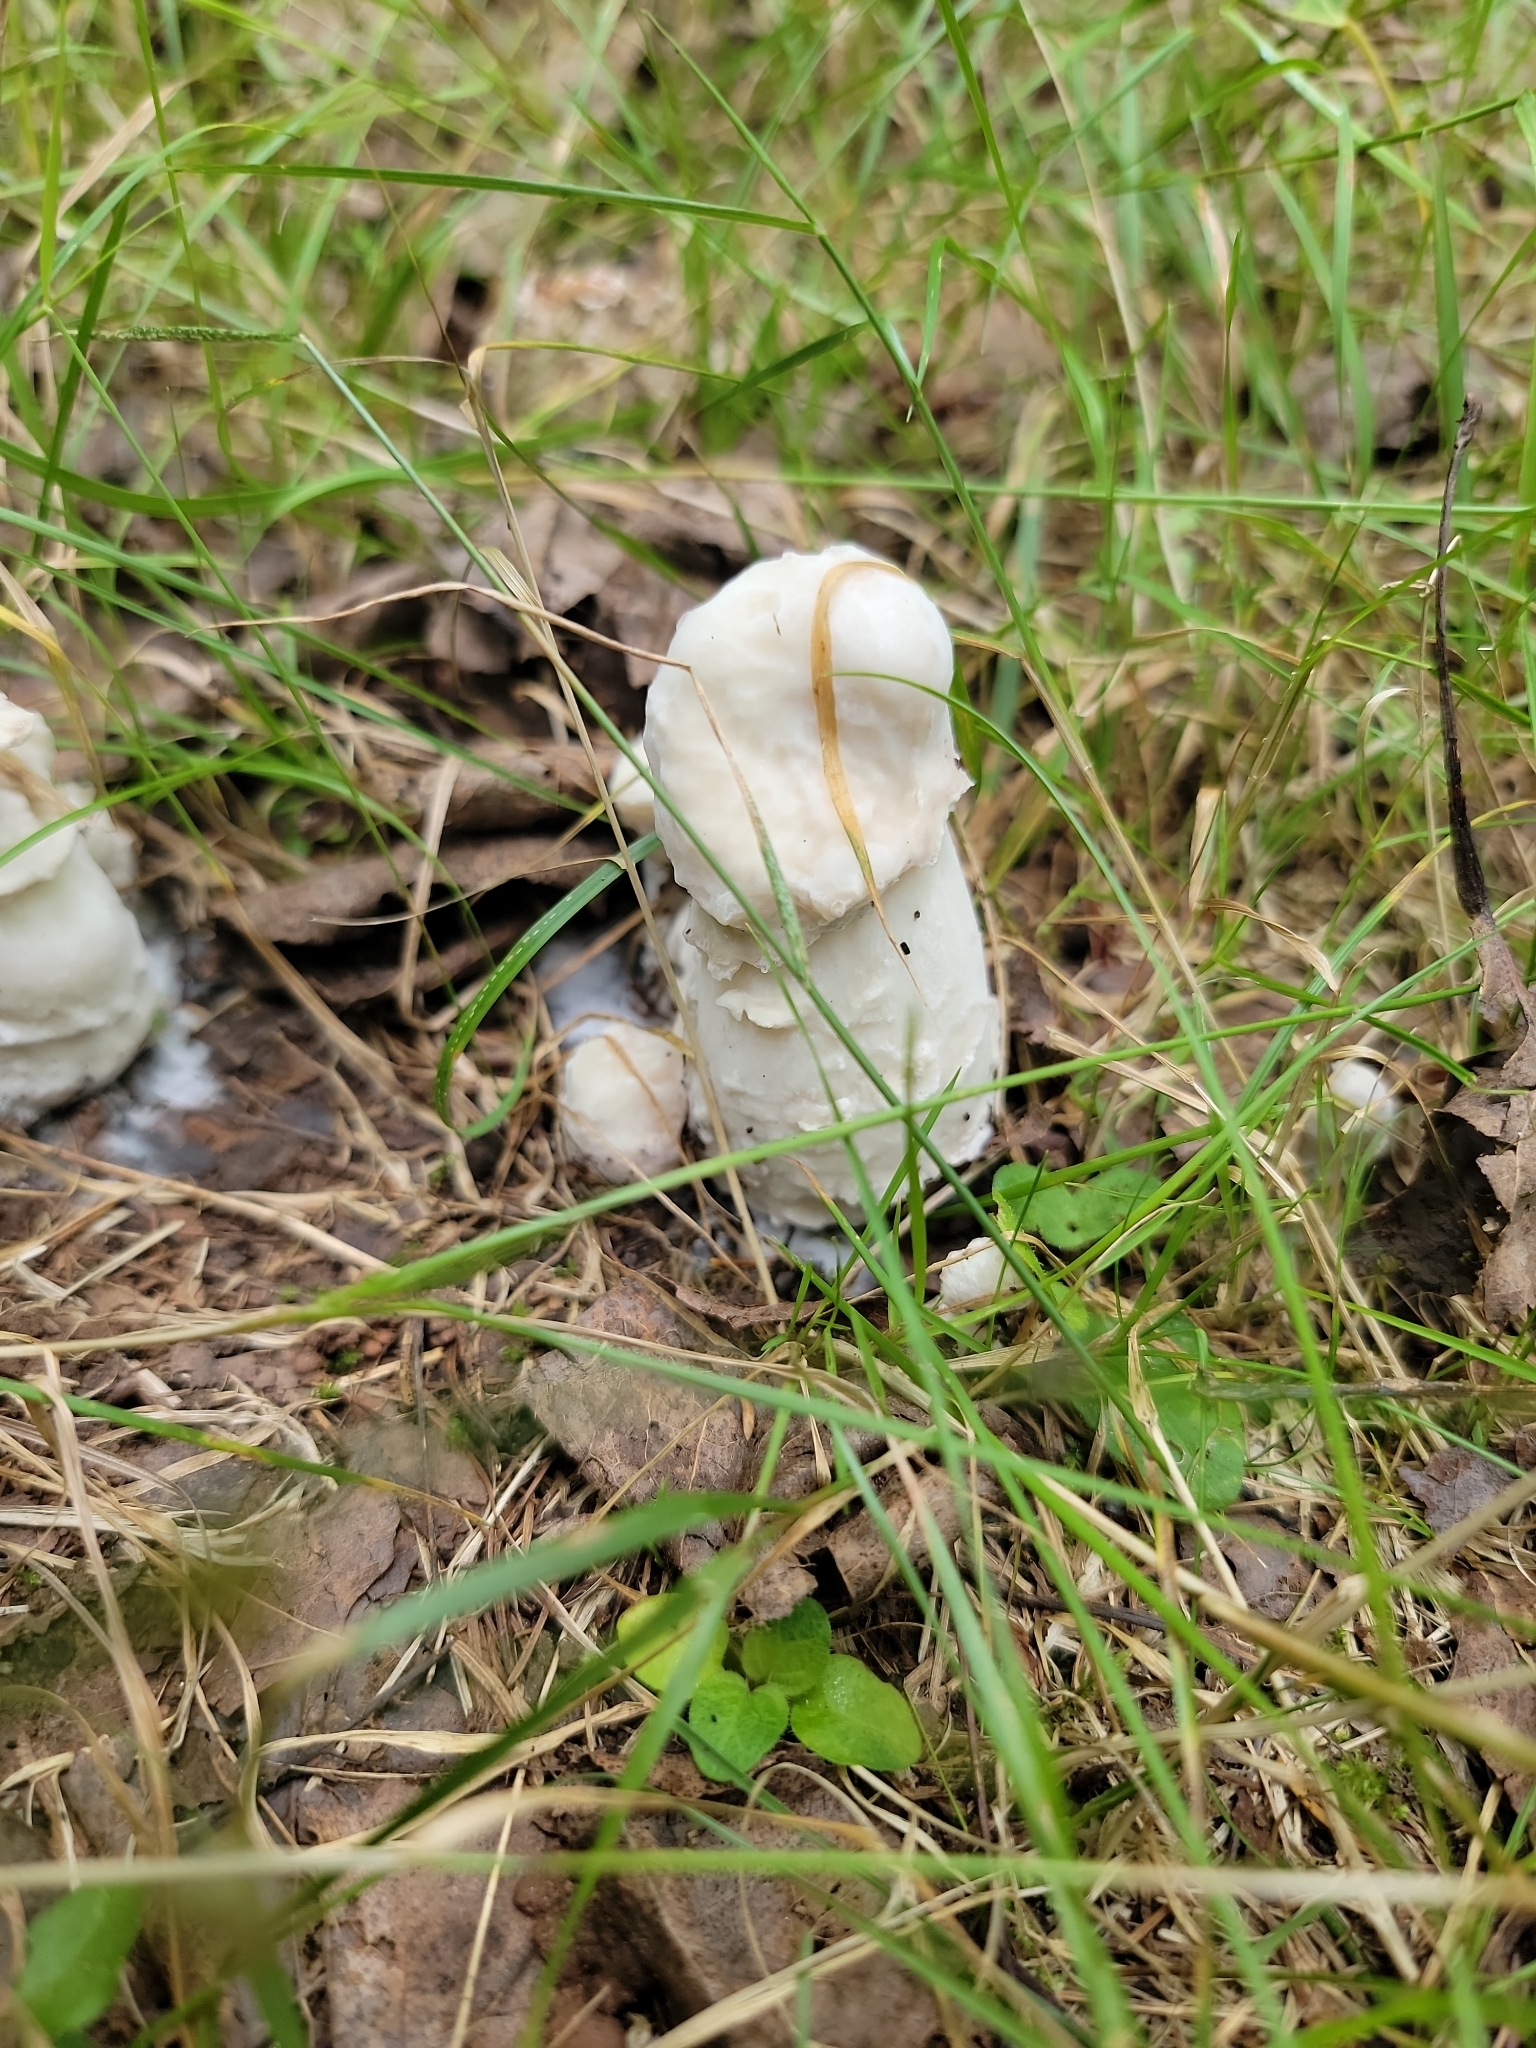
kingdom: Fungi
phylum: Ascomycota
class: Sordariomycetes
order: Hypocreales
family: Hypocreaceae
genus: Hypomyces
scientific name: Hypomyces hyalinus
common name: Amanita mold
